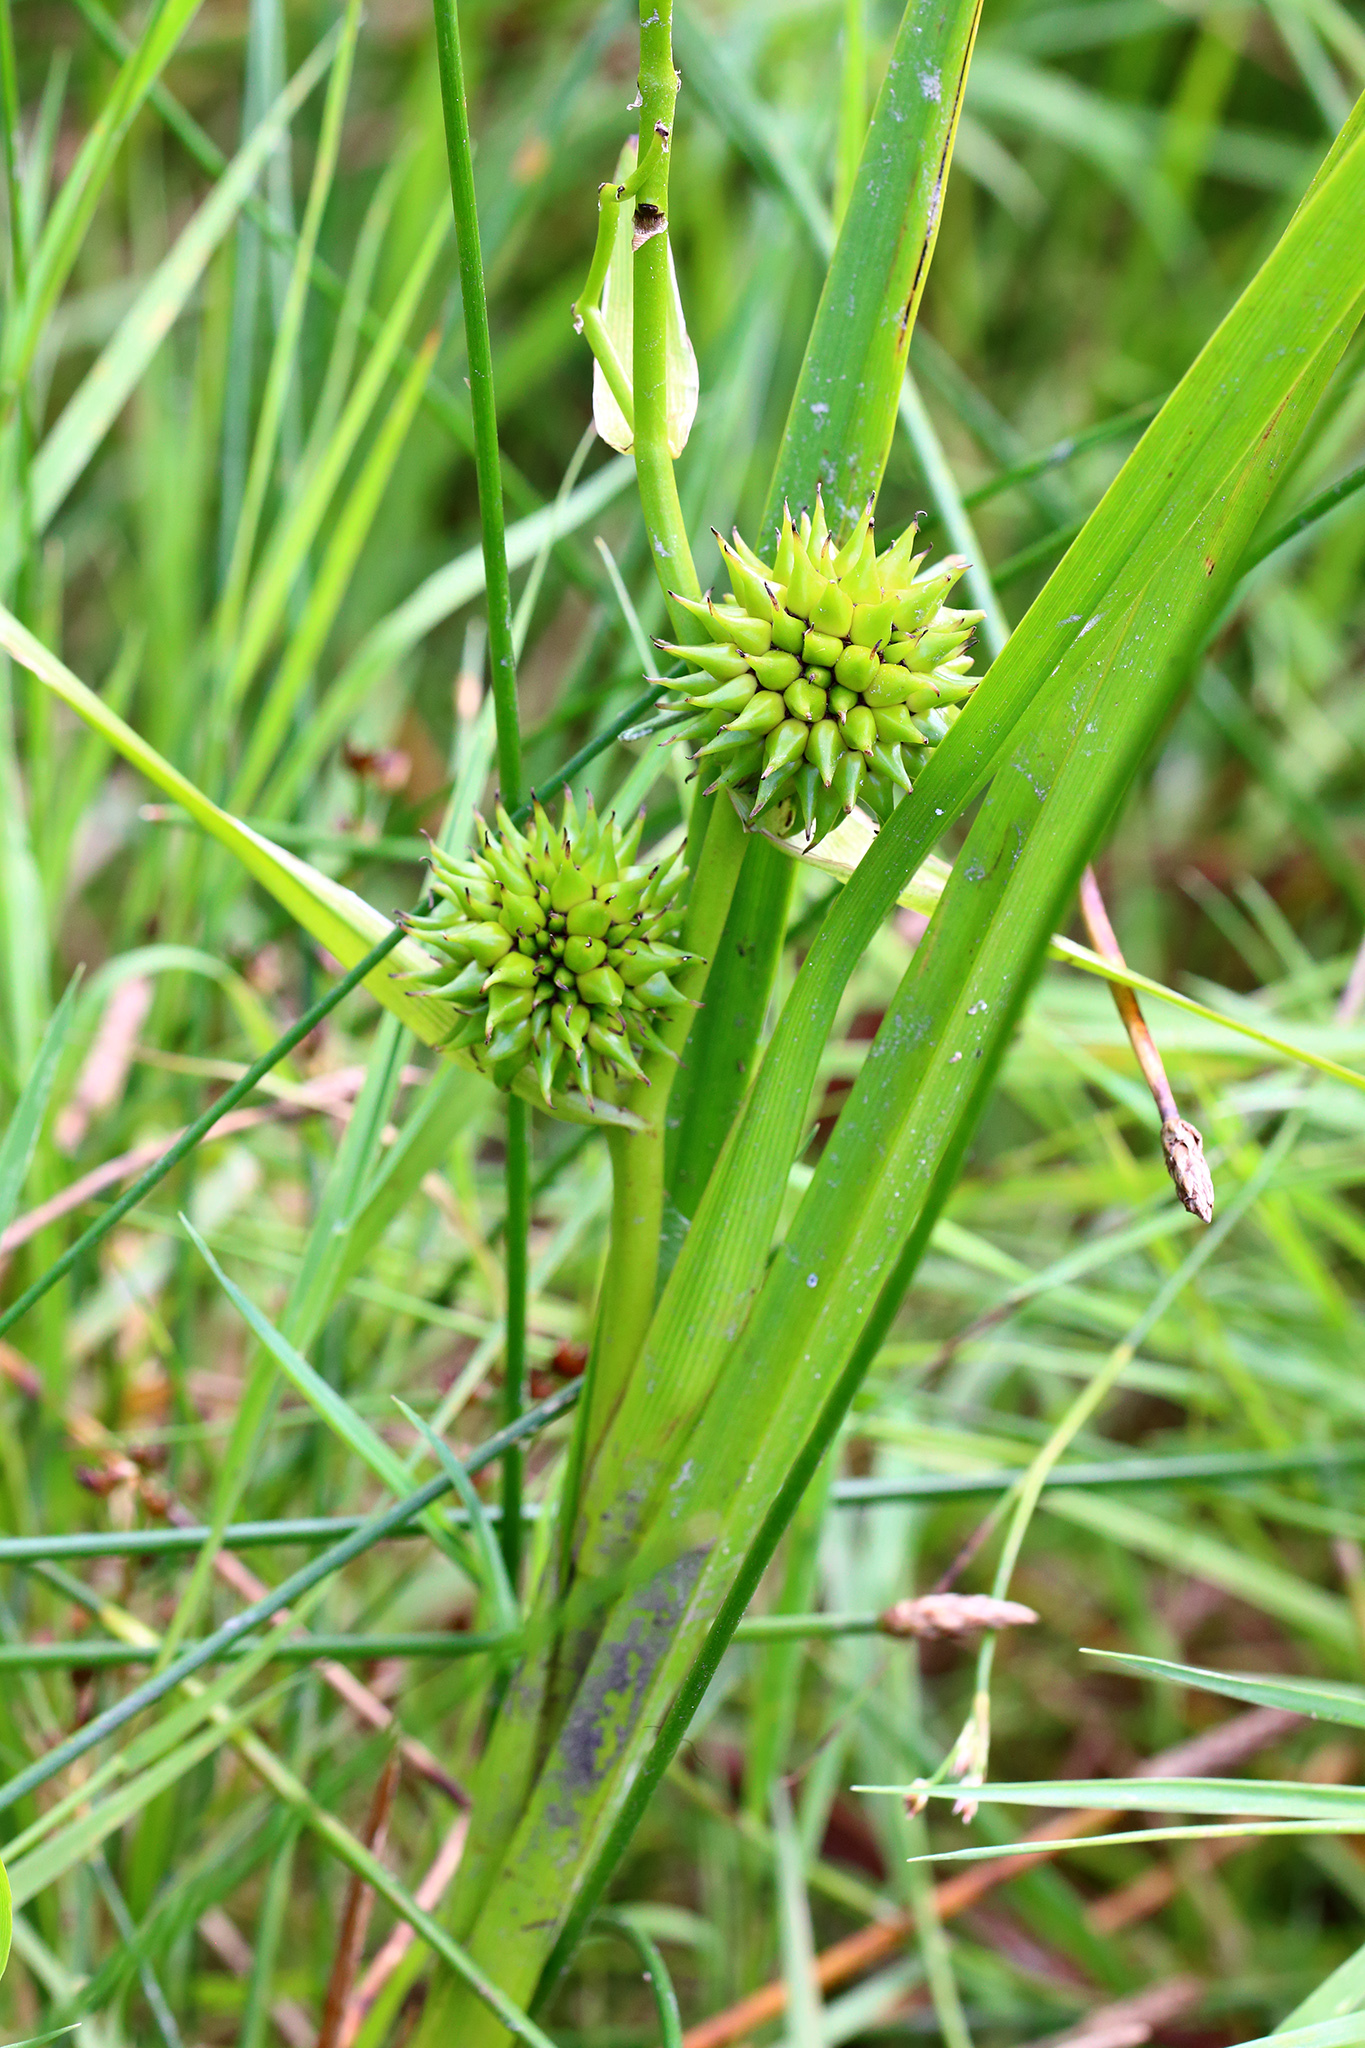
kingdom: Plantae
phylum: Tracheophyta
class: Liliopsida
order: Poales
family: Typhaceae
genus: Sparganium
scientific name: Sparganium emersum
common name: Unbranched bur-reed
